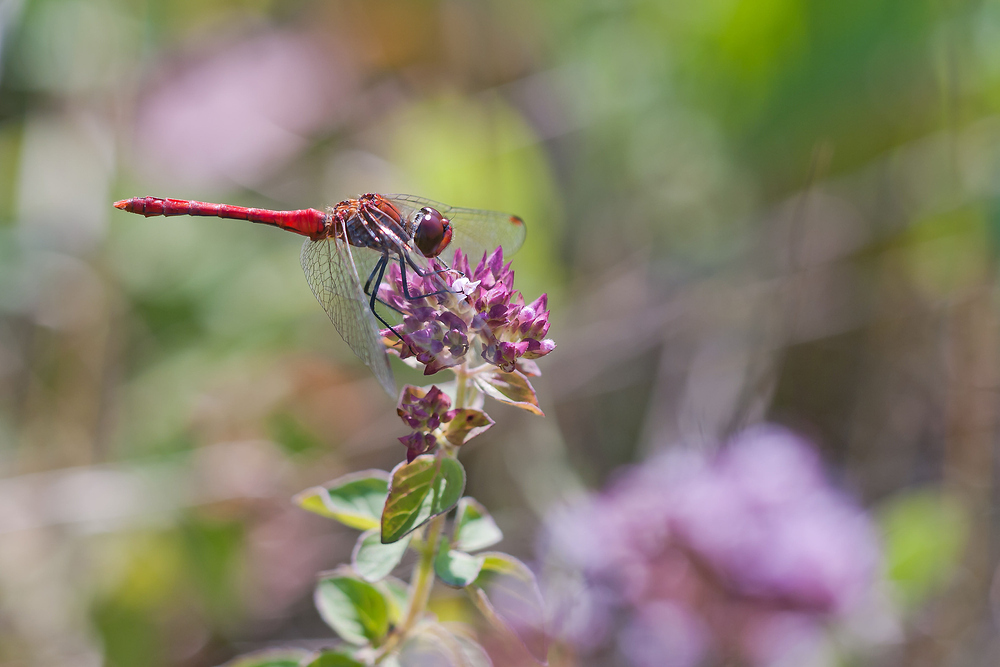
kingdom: Animalia
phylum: Arthropoda
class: Insecta
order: Odonata
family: Libellulidae
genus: Sympetrum
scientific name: Sympetrum sanguineum
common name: Ruddy darter
